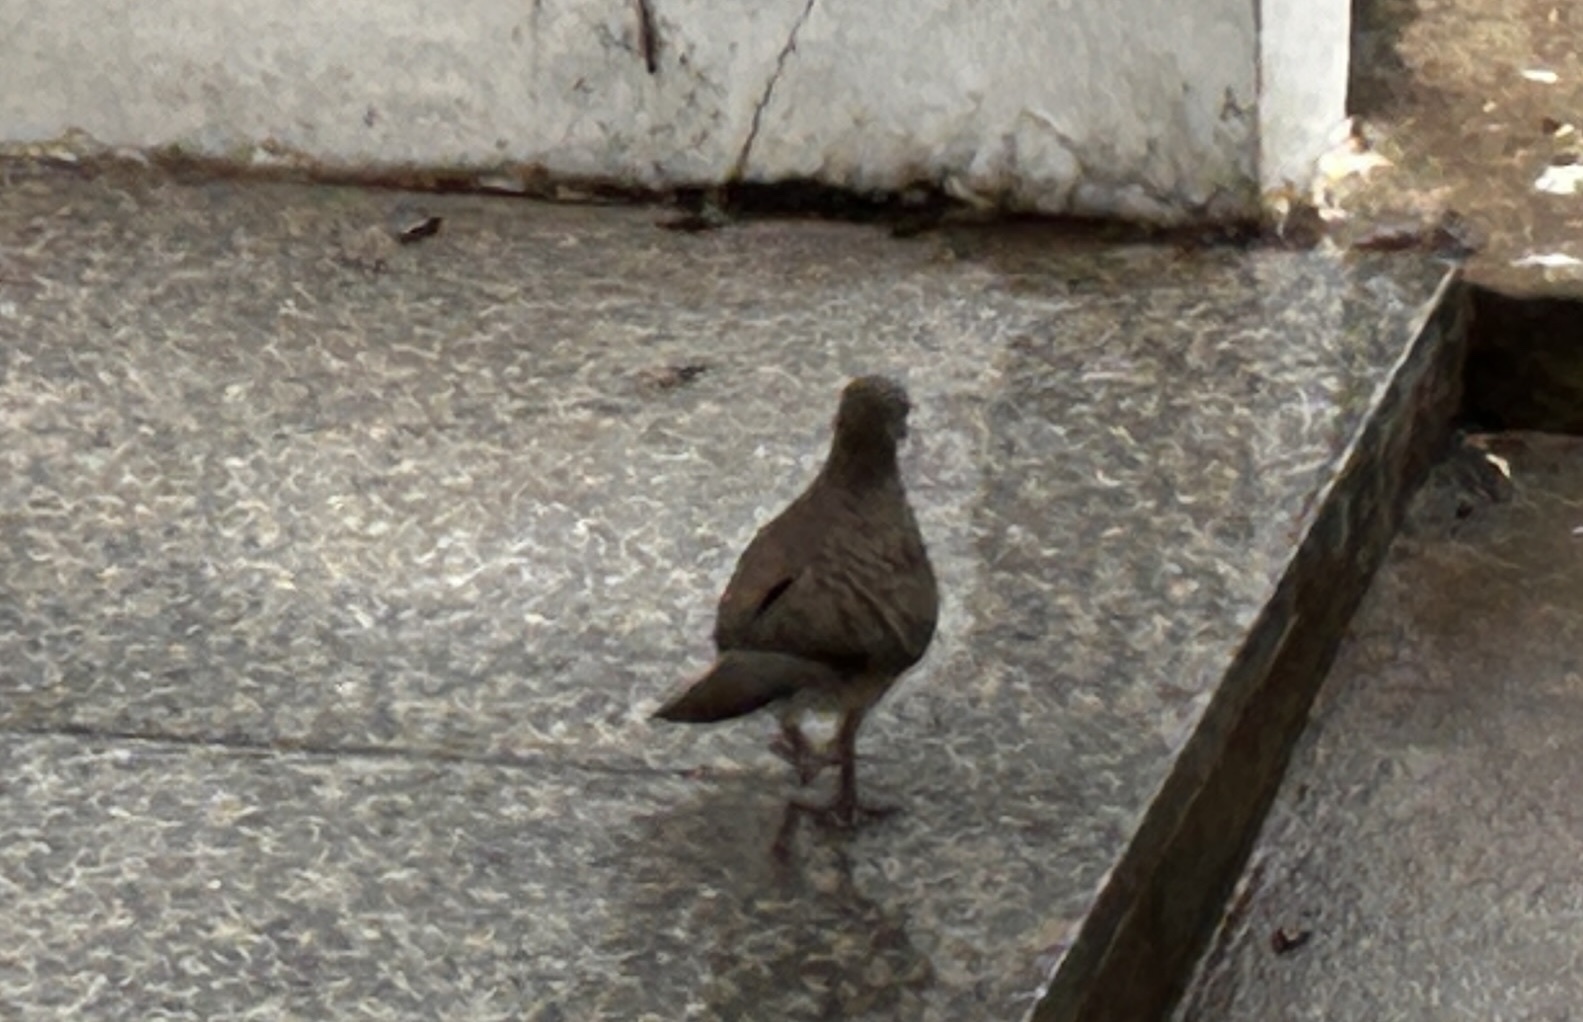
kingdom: Animalia
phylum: Chordata
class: Aves
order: Columbiformes
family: Columbidae
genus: Geopelia
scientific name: Geopelia striata
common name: Zebra dove
